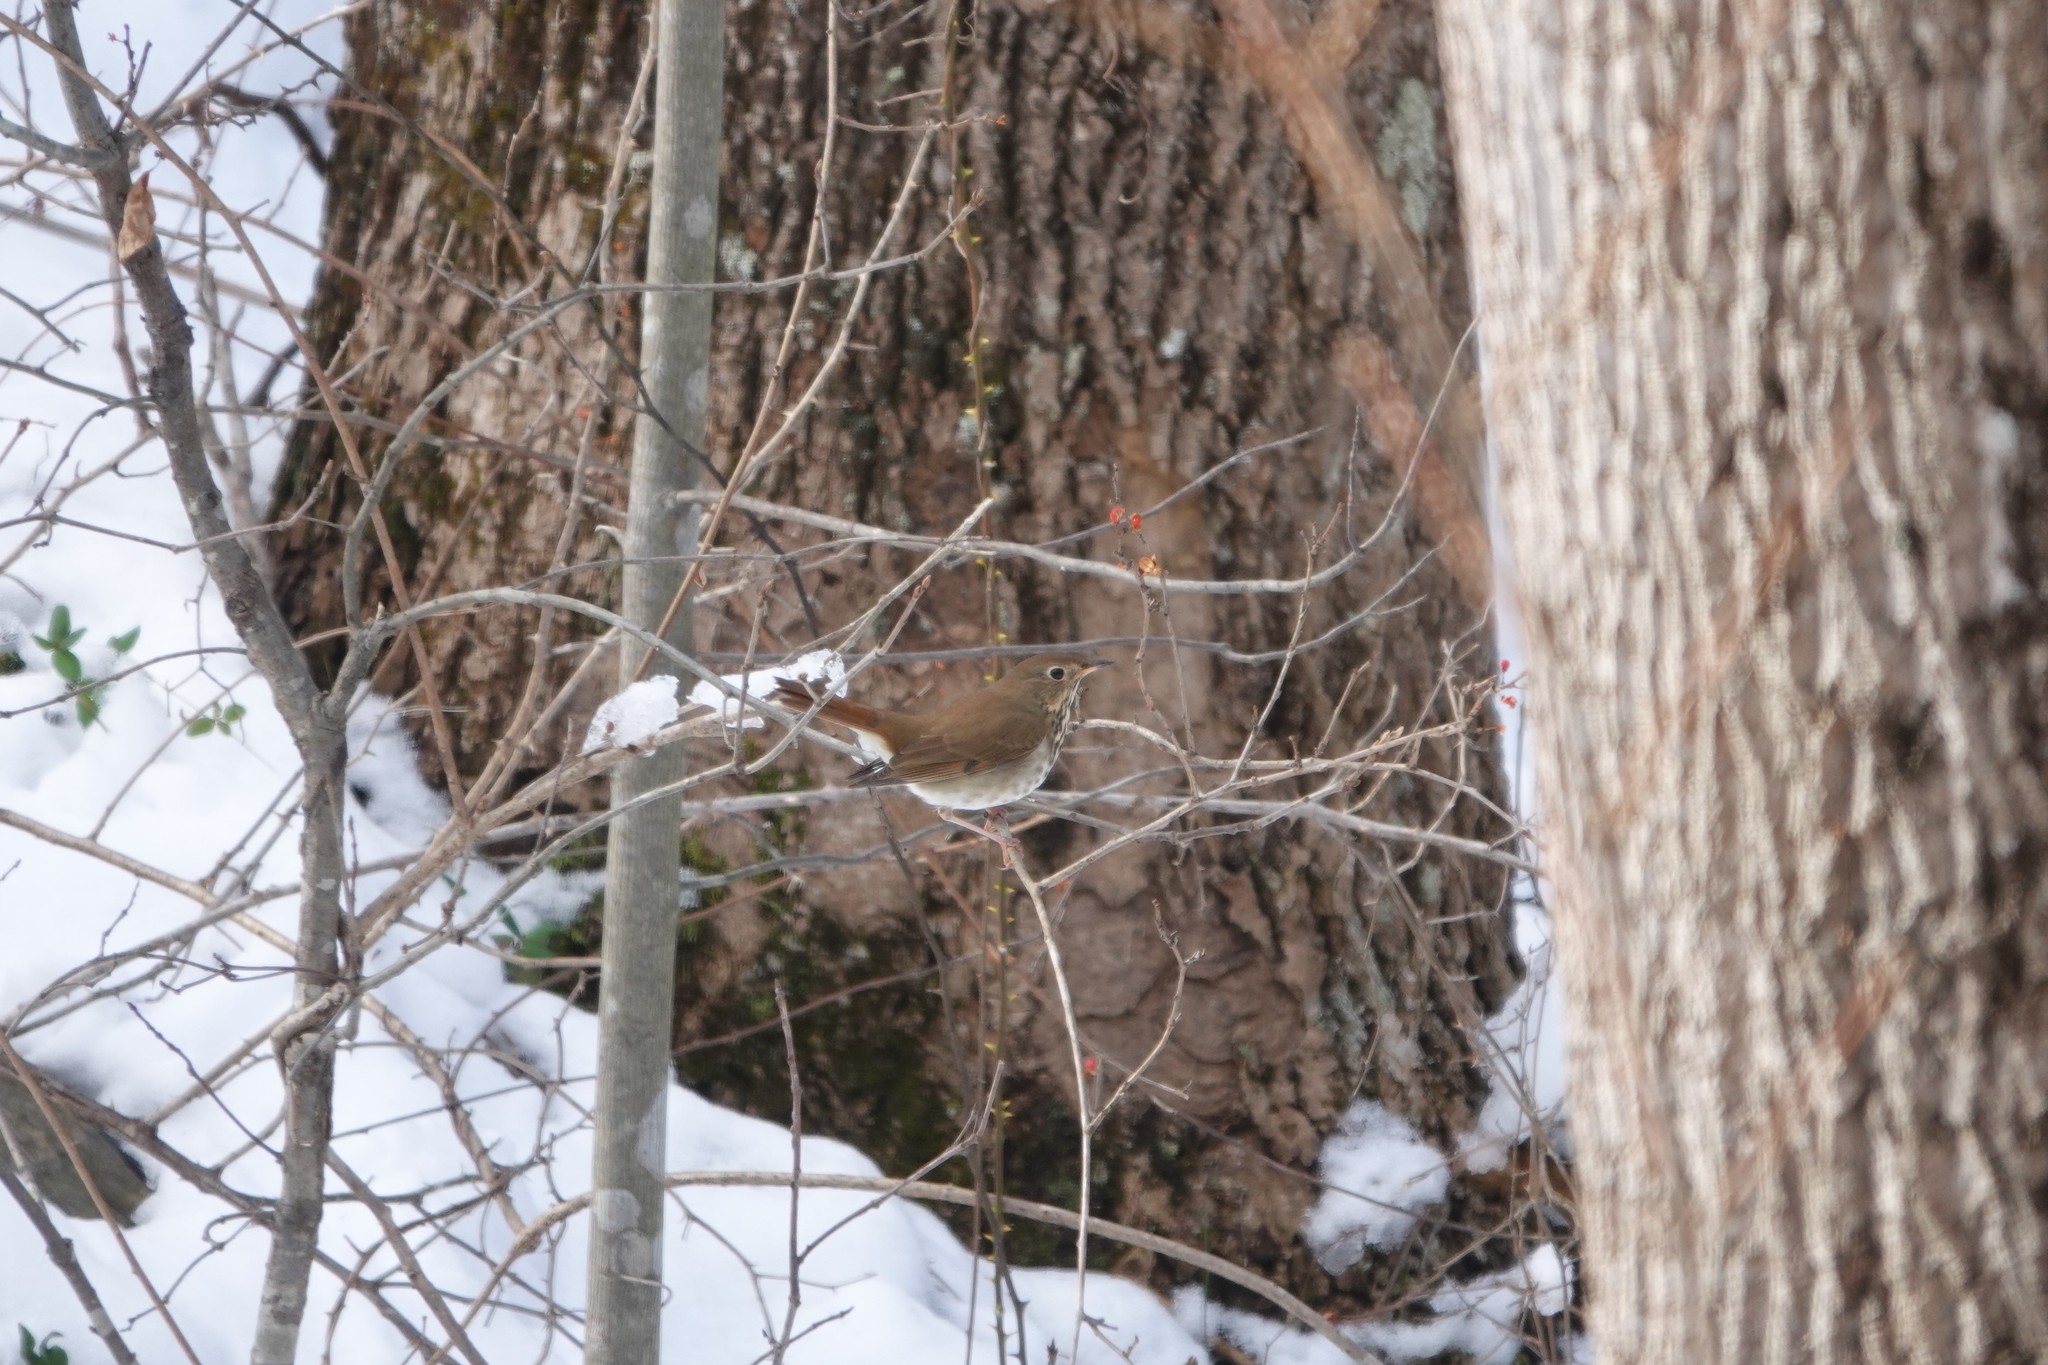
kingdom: Animalia
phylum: Chordata
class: Aves
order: Passeriformes
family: Turdidae
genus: Catharus
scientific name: Catharus guttatus
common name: Hermit thrush
